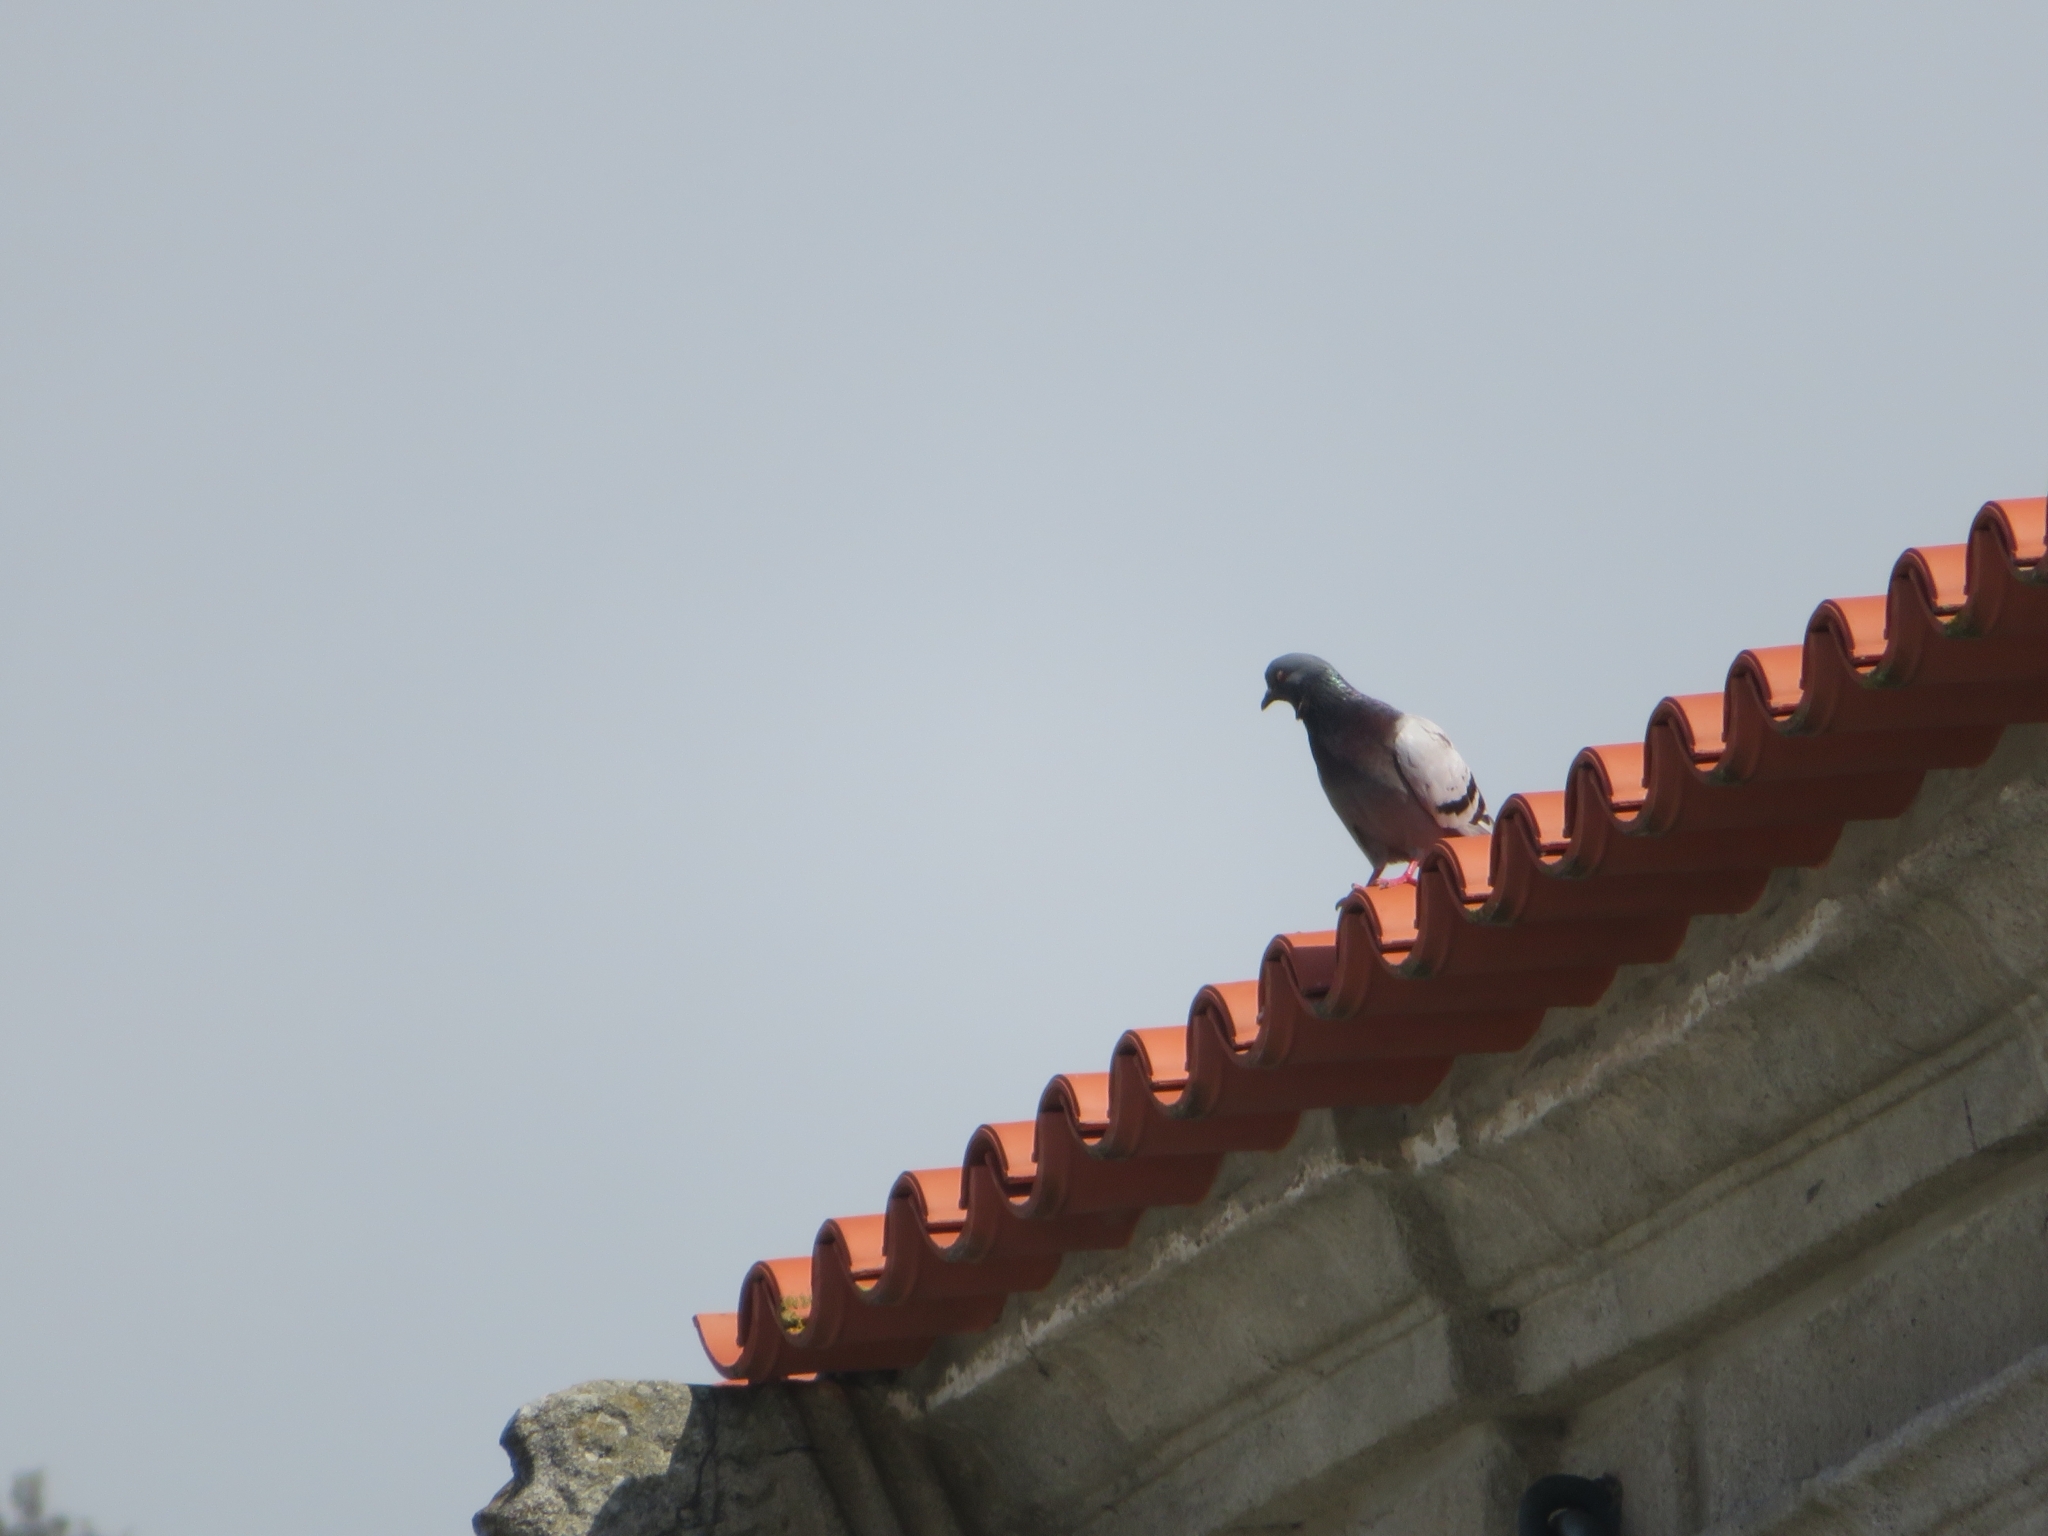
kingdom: Animalia
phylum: Chordata
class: Aves
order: Columbiformes
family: Columbidae
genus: Columba
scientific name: Columba livia
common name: Rock pigeon
